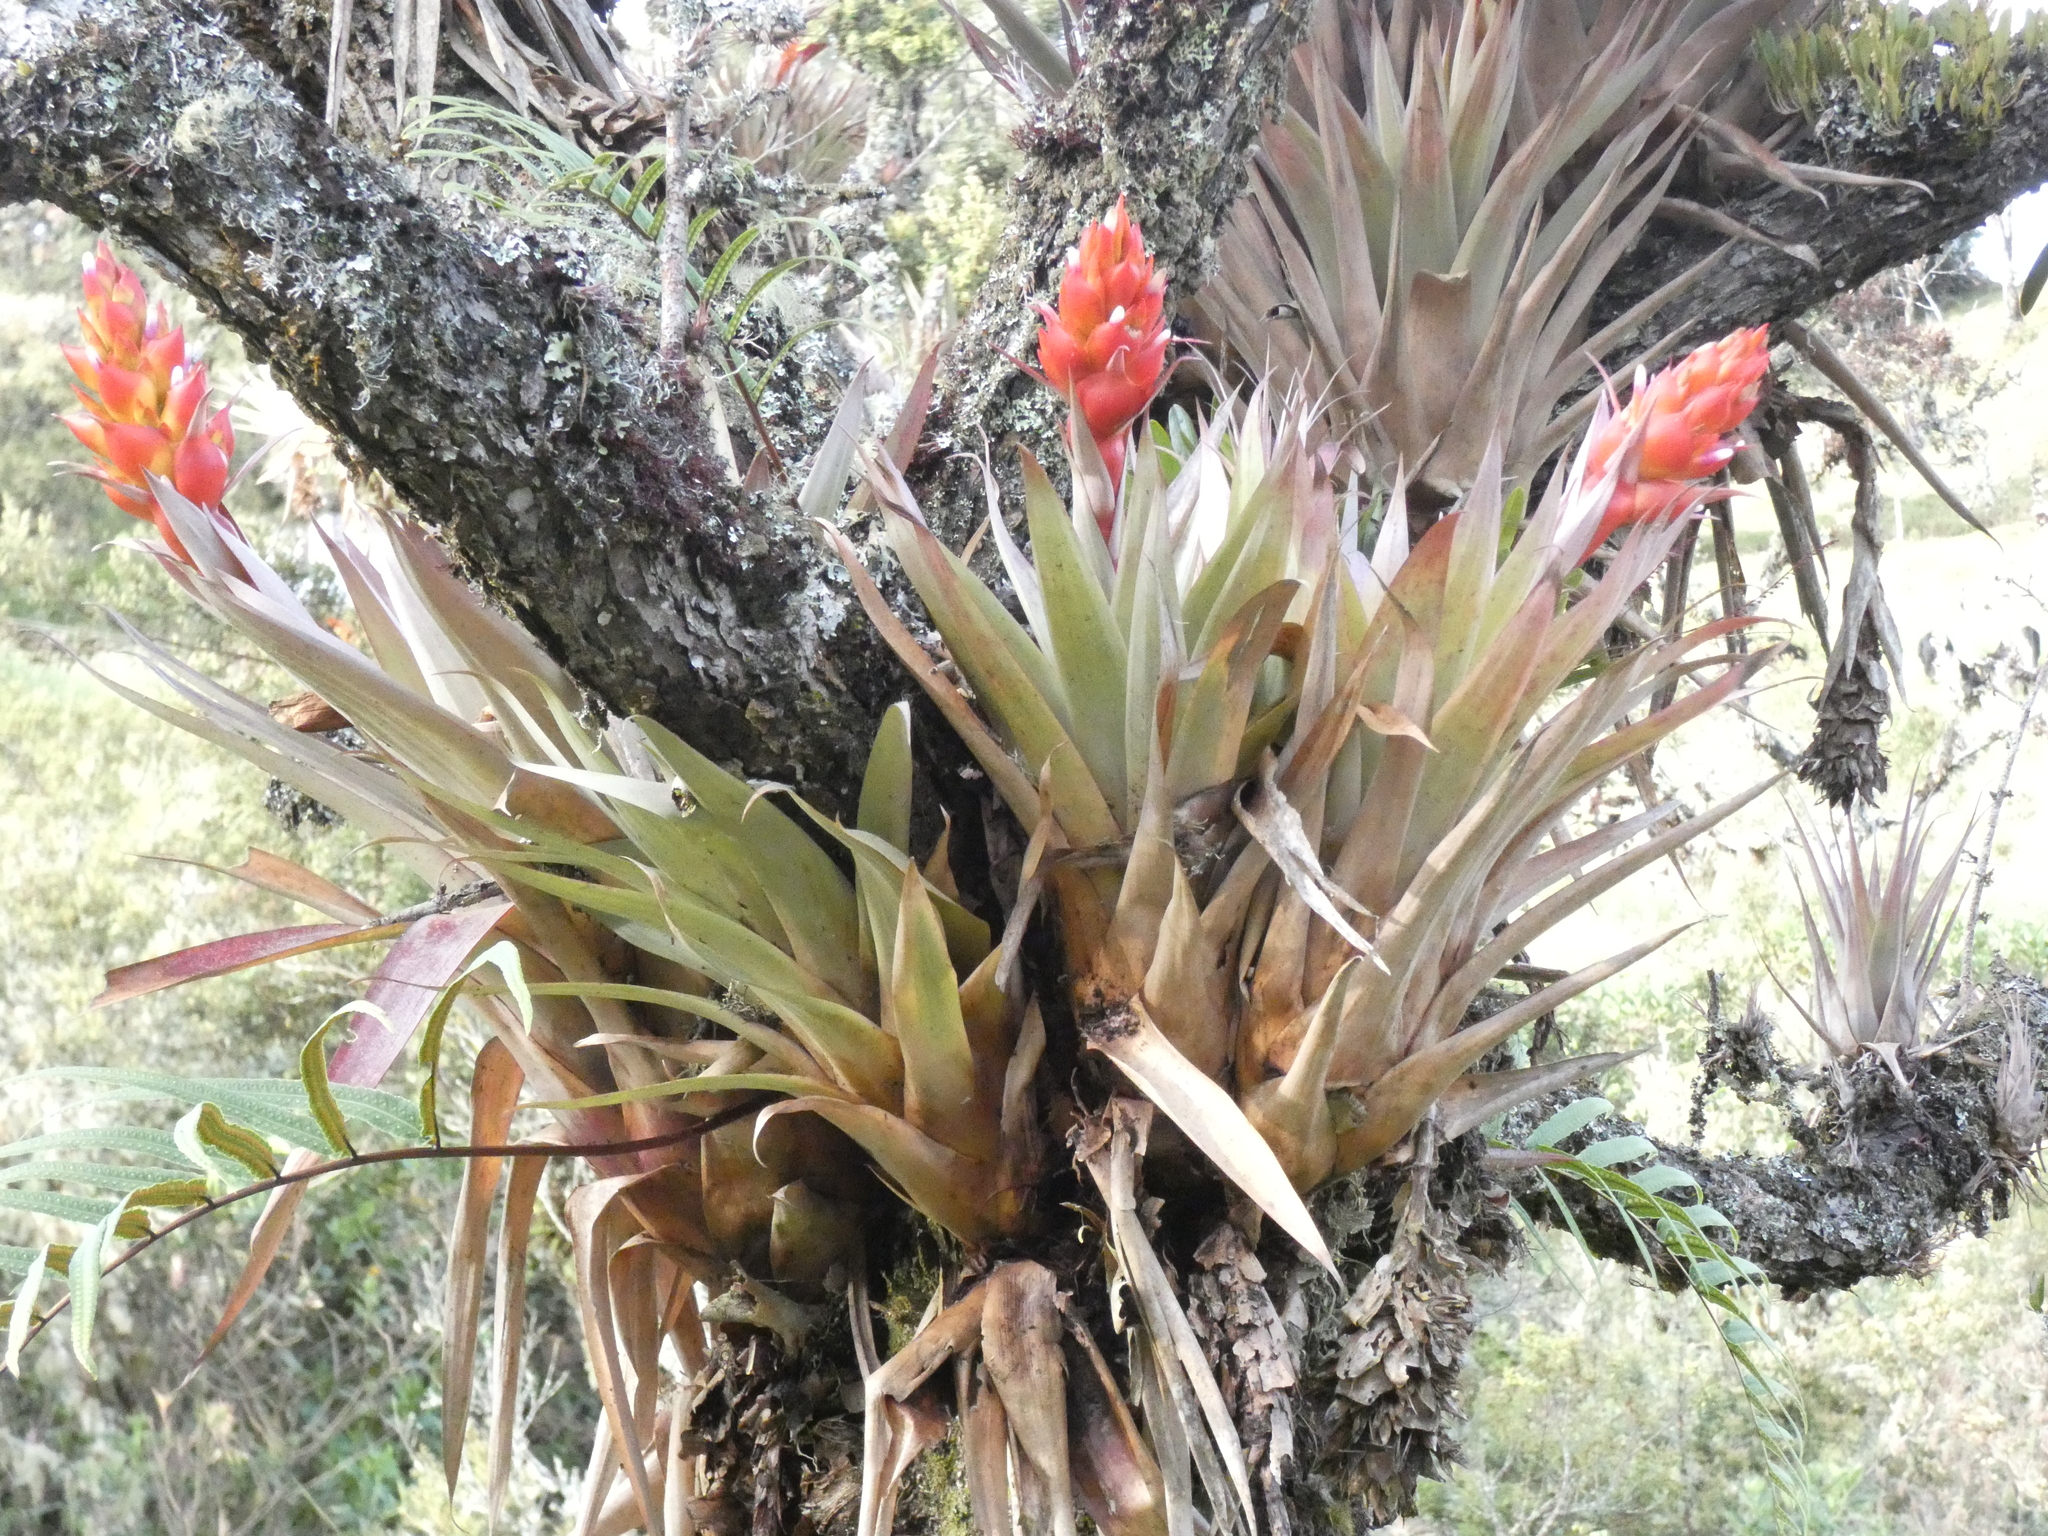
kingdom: Plantae
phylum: Tracheophyta
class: Liliopsida
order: Poales
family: Bromeliaceae
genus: Tillandsia
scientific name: Tillandsia turneri
